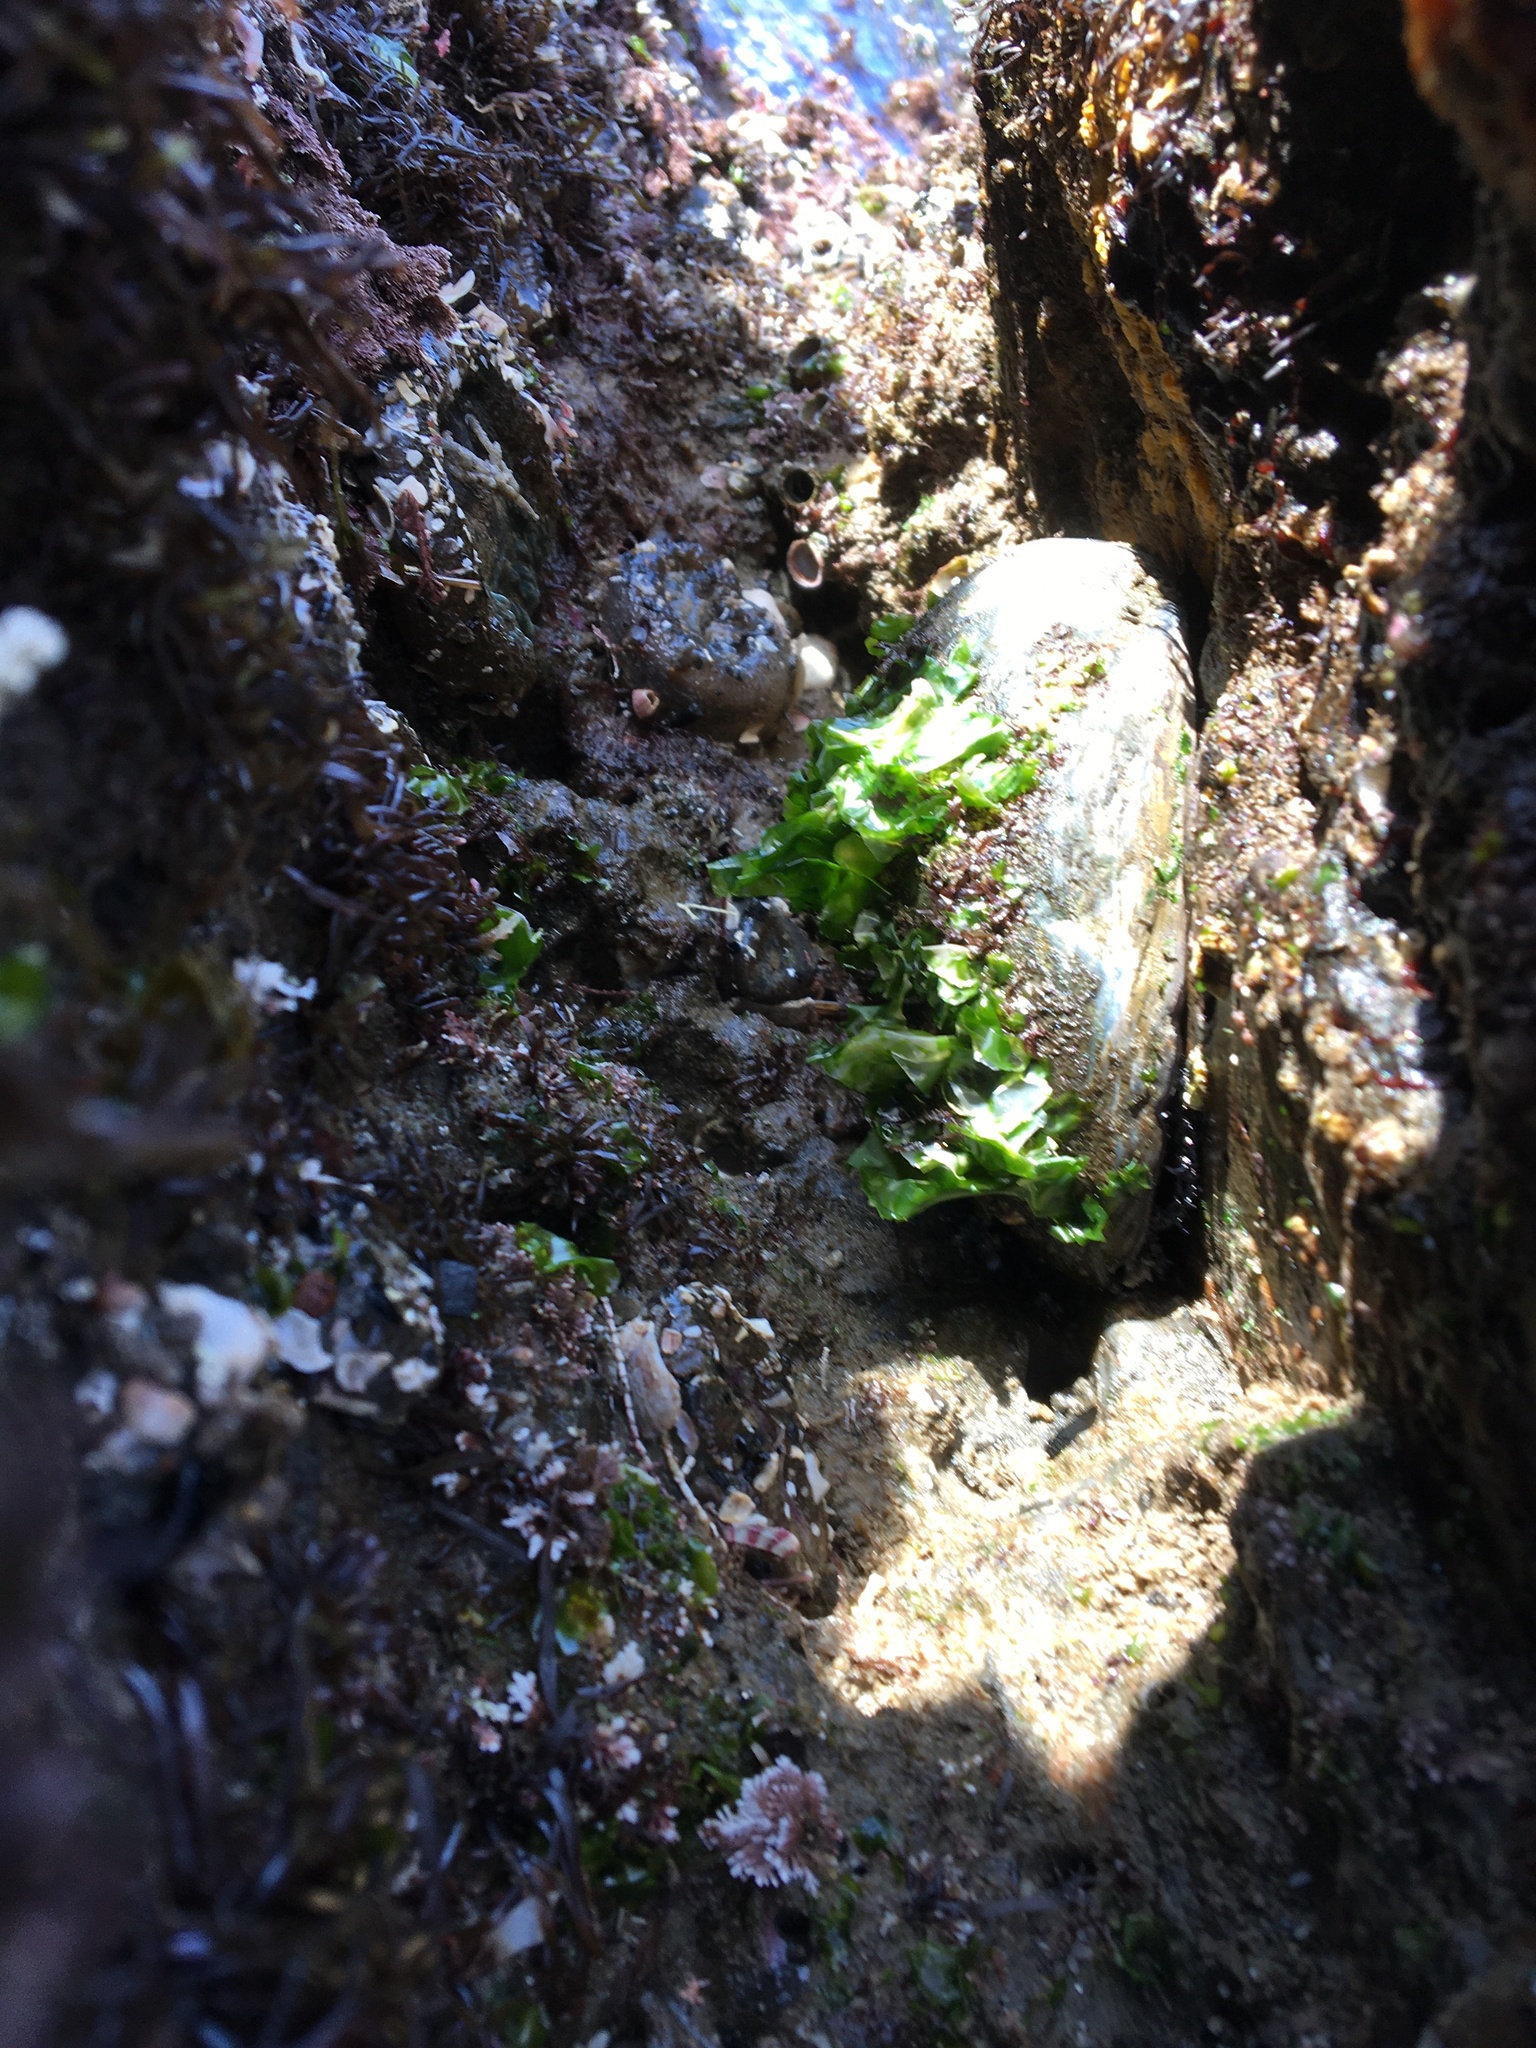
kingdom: Animalia
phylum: Mollusca
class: Gastropoda
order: Lepetellida
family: Haliotidae
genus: Haliotis
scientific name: Haliotis cracherodii
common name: Black abalone
